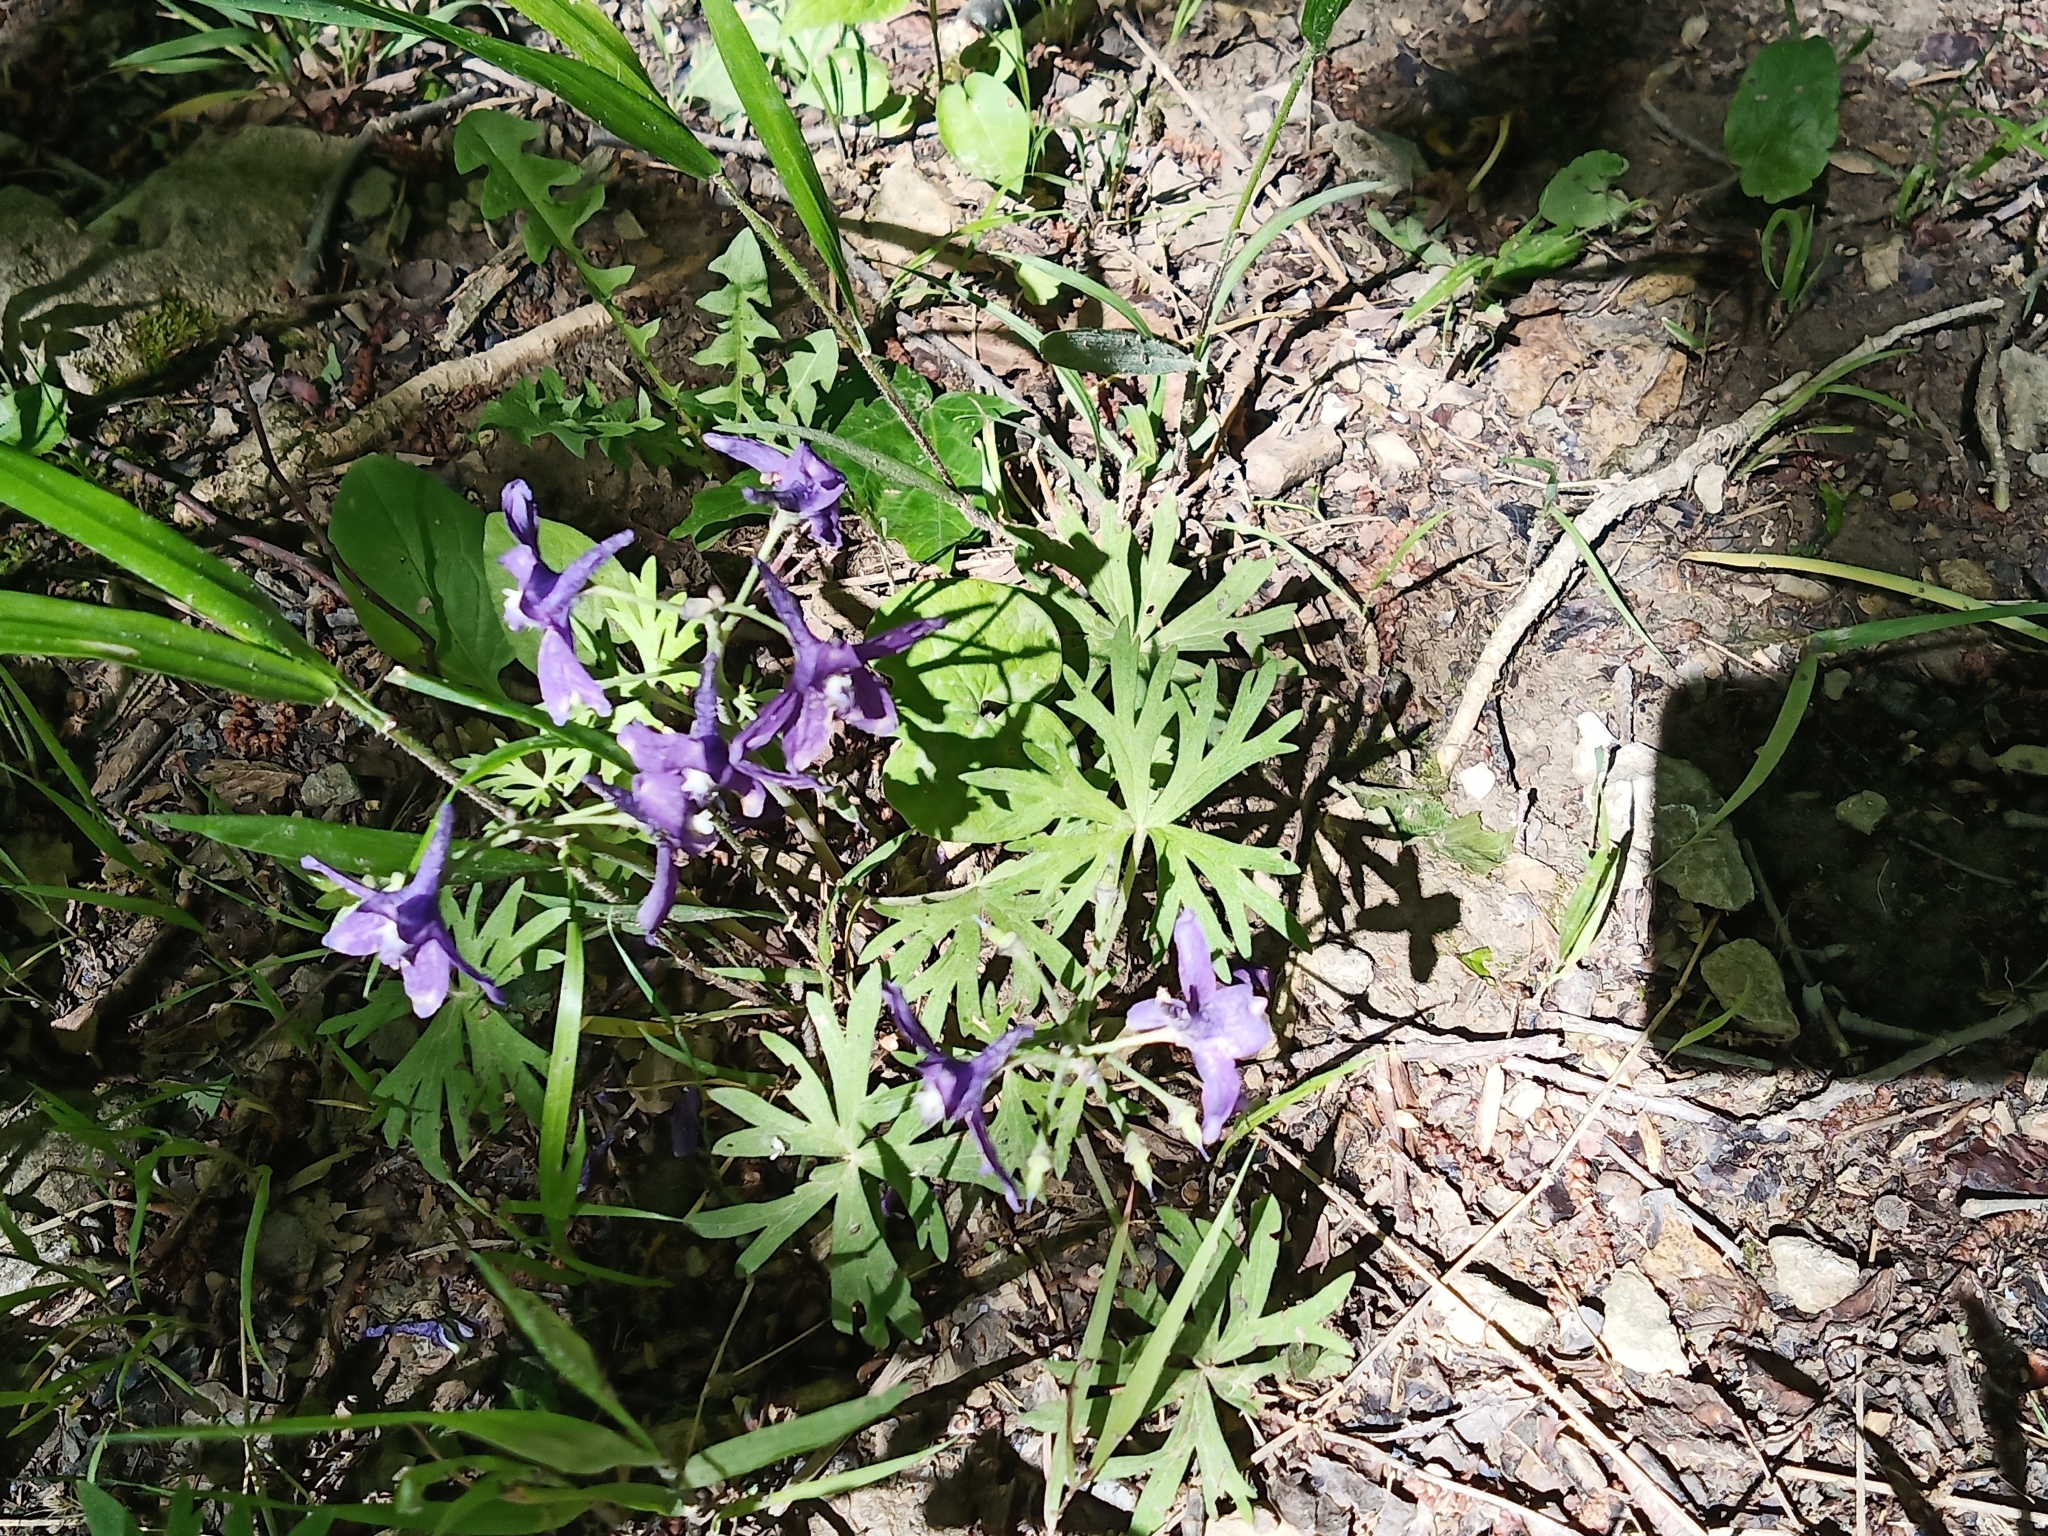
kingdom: Plantae
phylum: Tracheophyta
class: Magnoliopsida
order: Ranunculales
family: Ranunculaceae
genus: Delphinium
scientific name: Delphinium tricorne
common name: Dwarf larkspur
